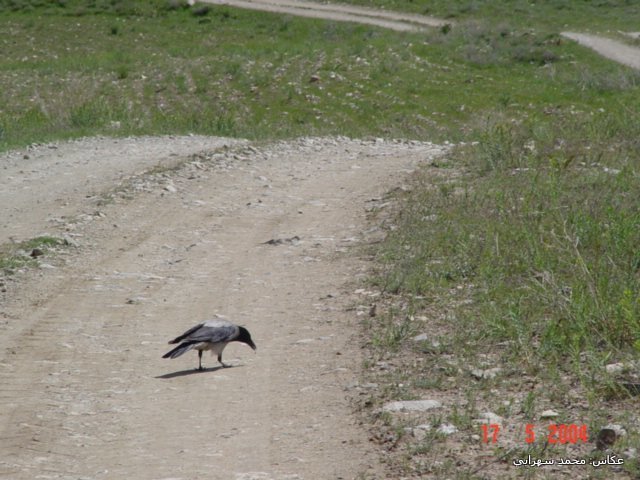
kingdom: Animalia
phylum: Chordata
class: Aves
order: Passeriformes
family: Corvidae
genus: Corvus
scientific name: Corvus cornix
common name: Hooded crow
